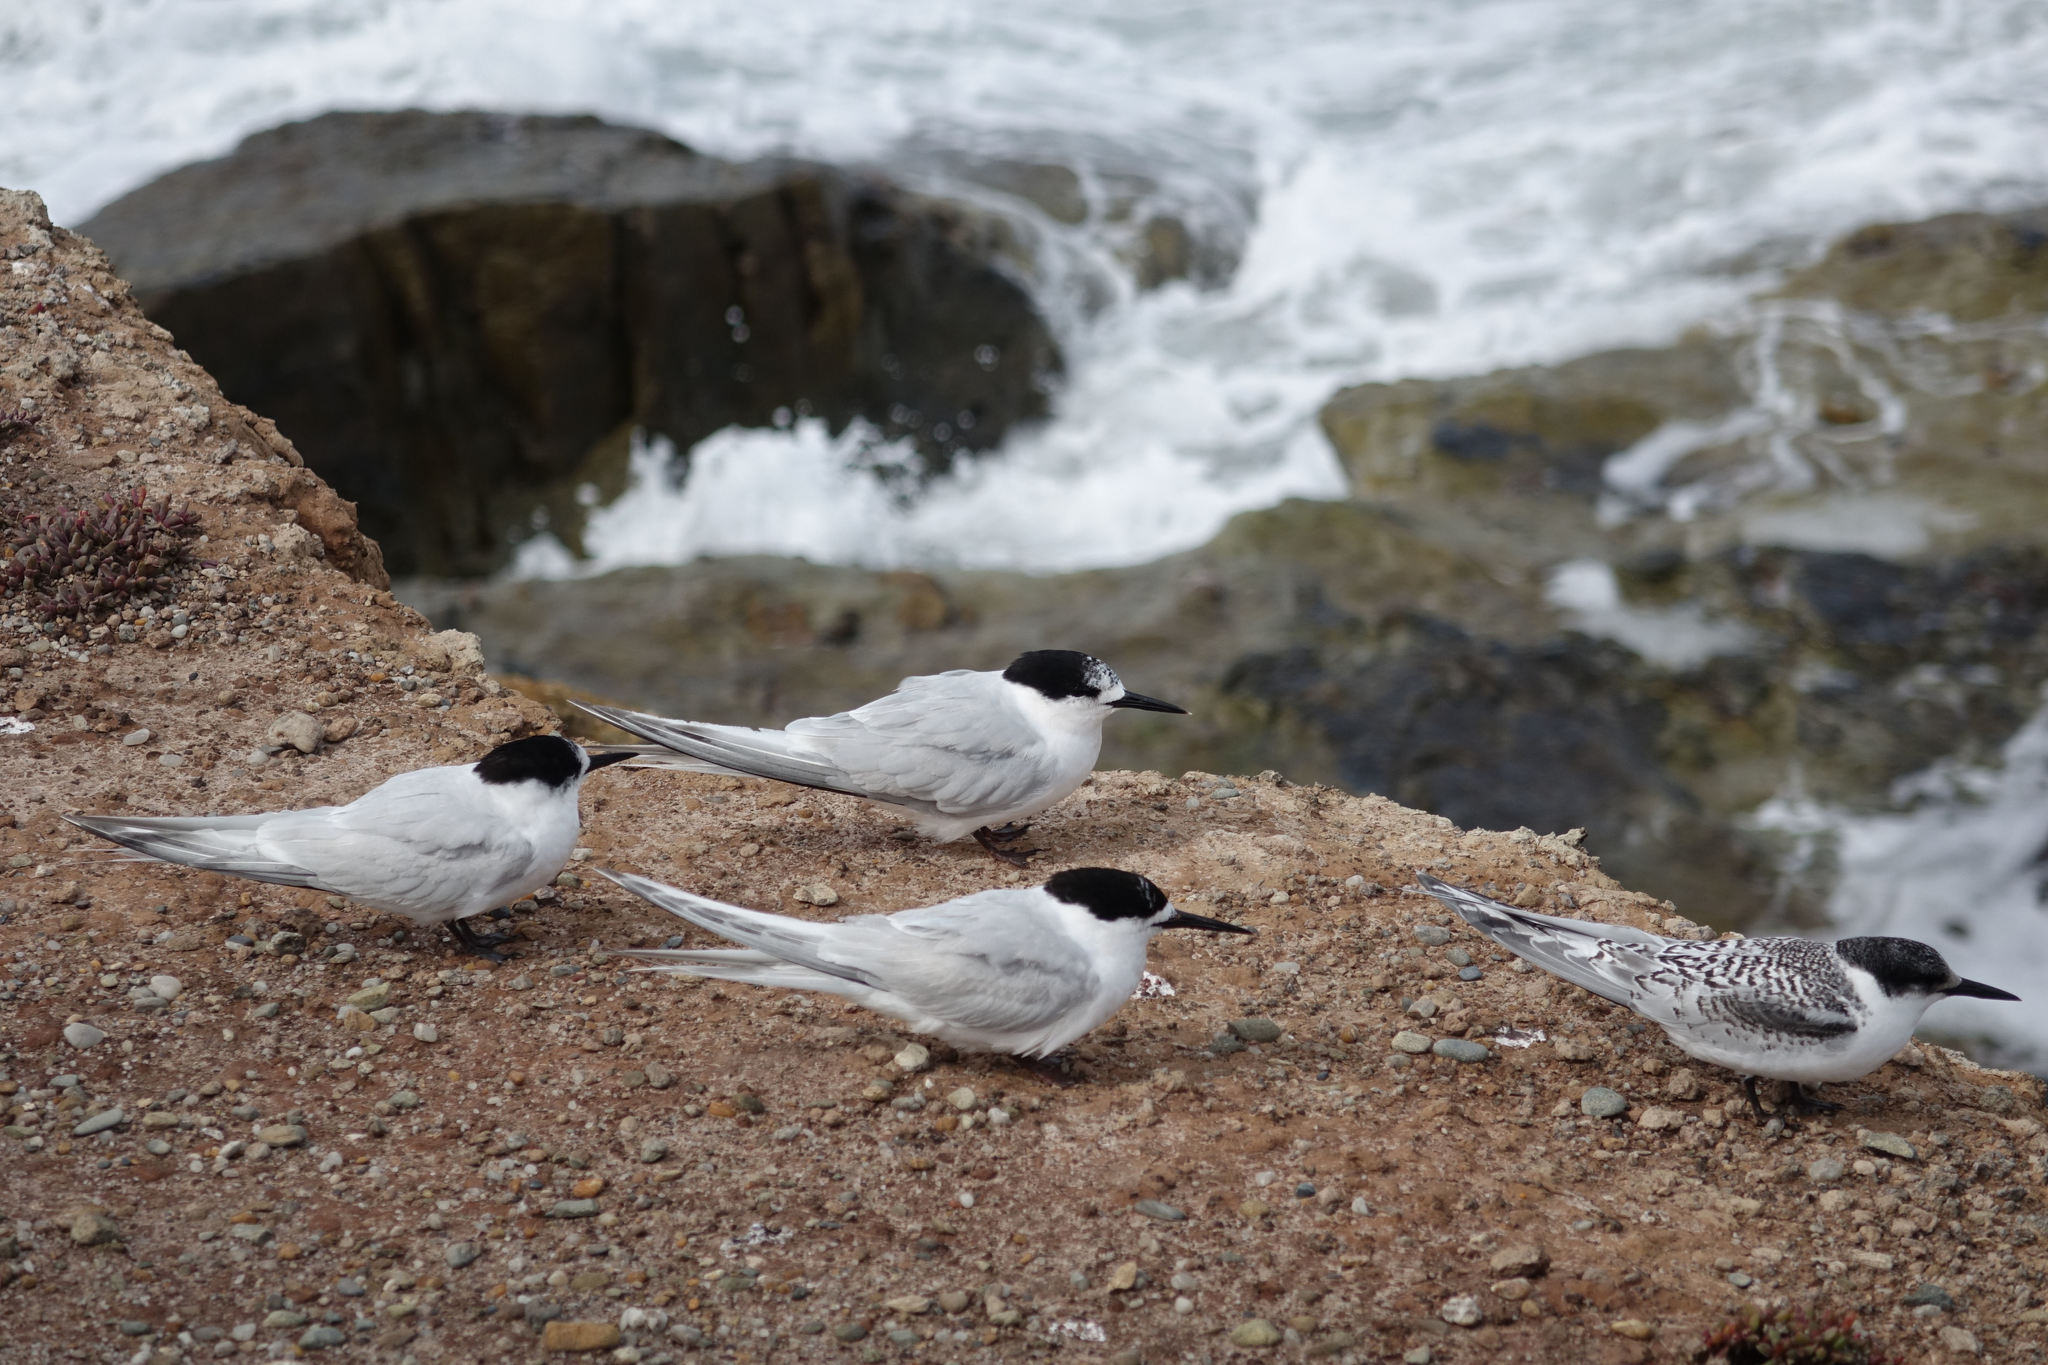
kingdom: Animalia
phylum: Chordata
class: Aves
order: Charadriiformes
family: Laridae
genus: Sterna
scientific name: Sterna striata
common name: White-fronted tern
